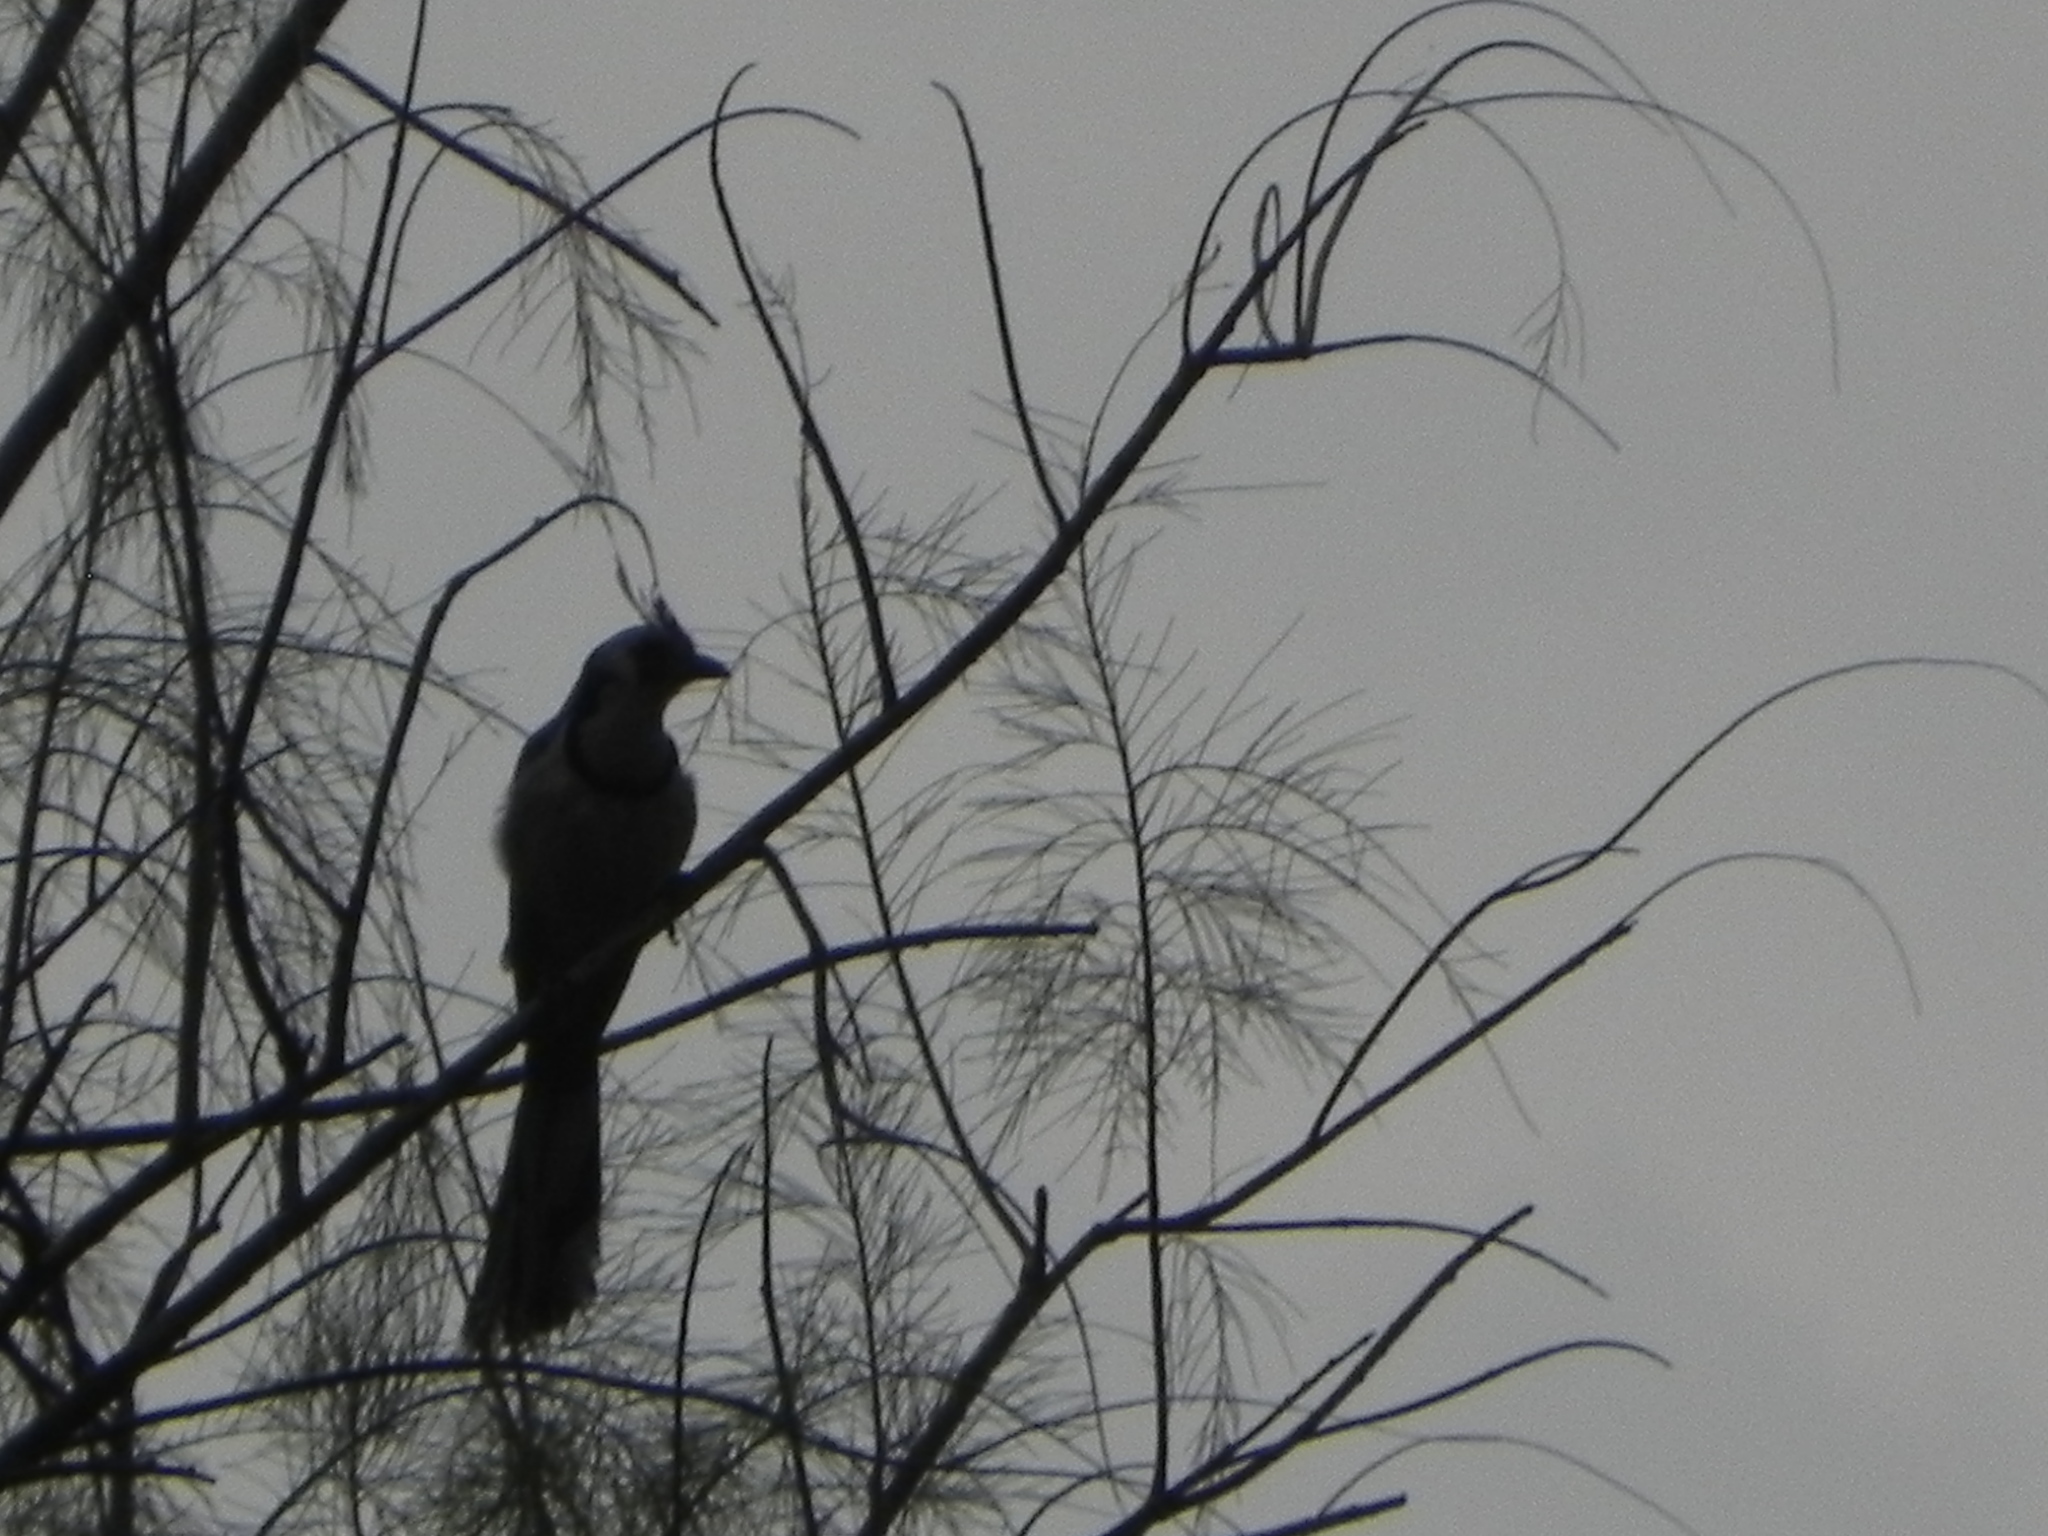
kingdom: Animalia
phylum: Chordata
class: Aves
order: Passeriformes
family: Corvidae
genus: Calocitta
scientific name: Calocitta formosa
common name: White-throated magpie-jay
